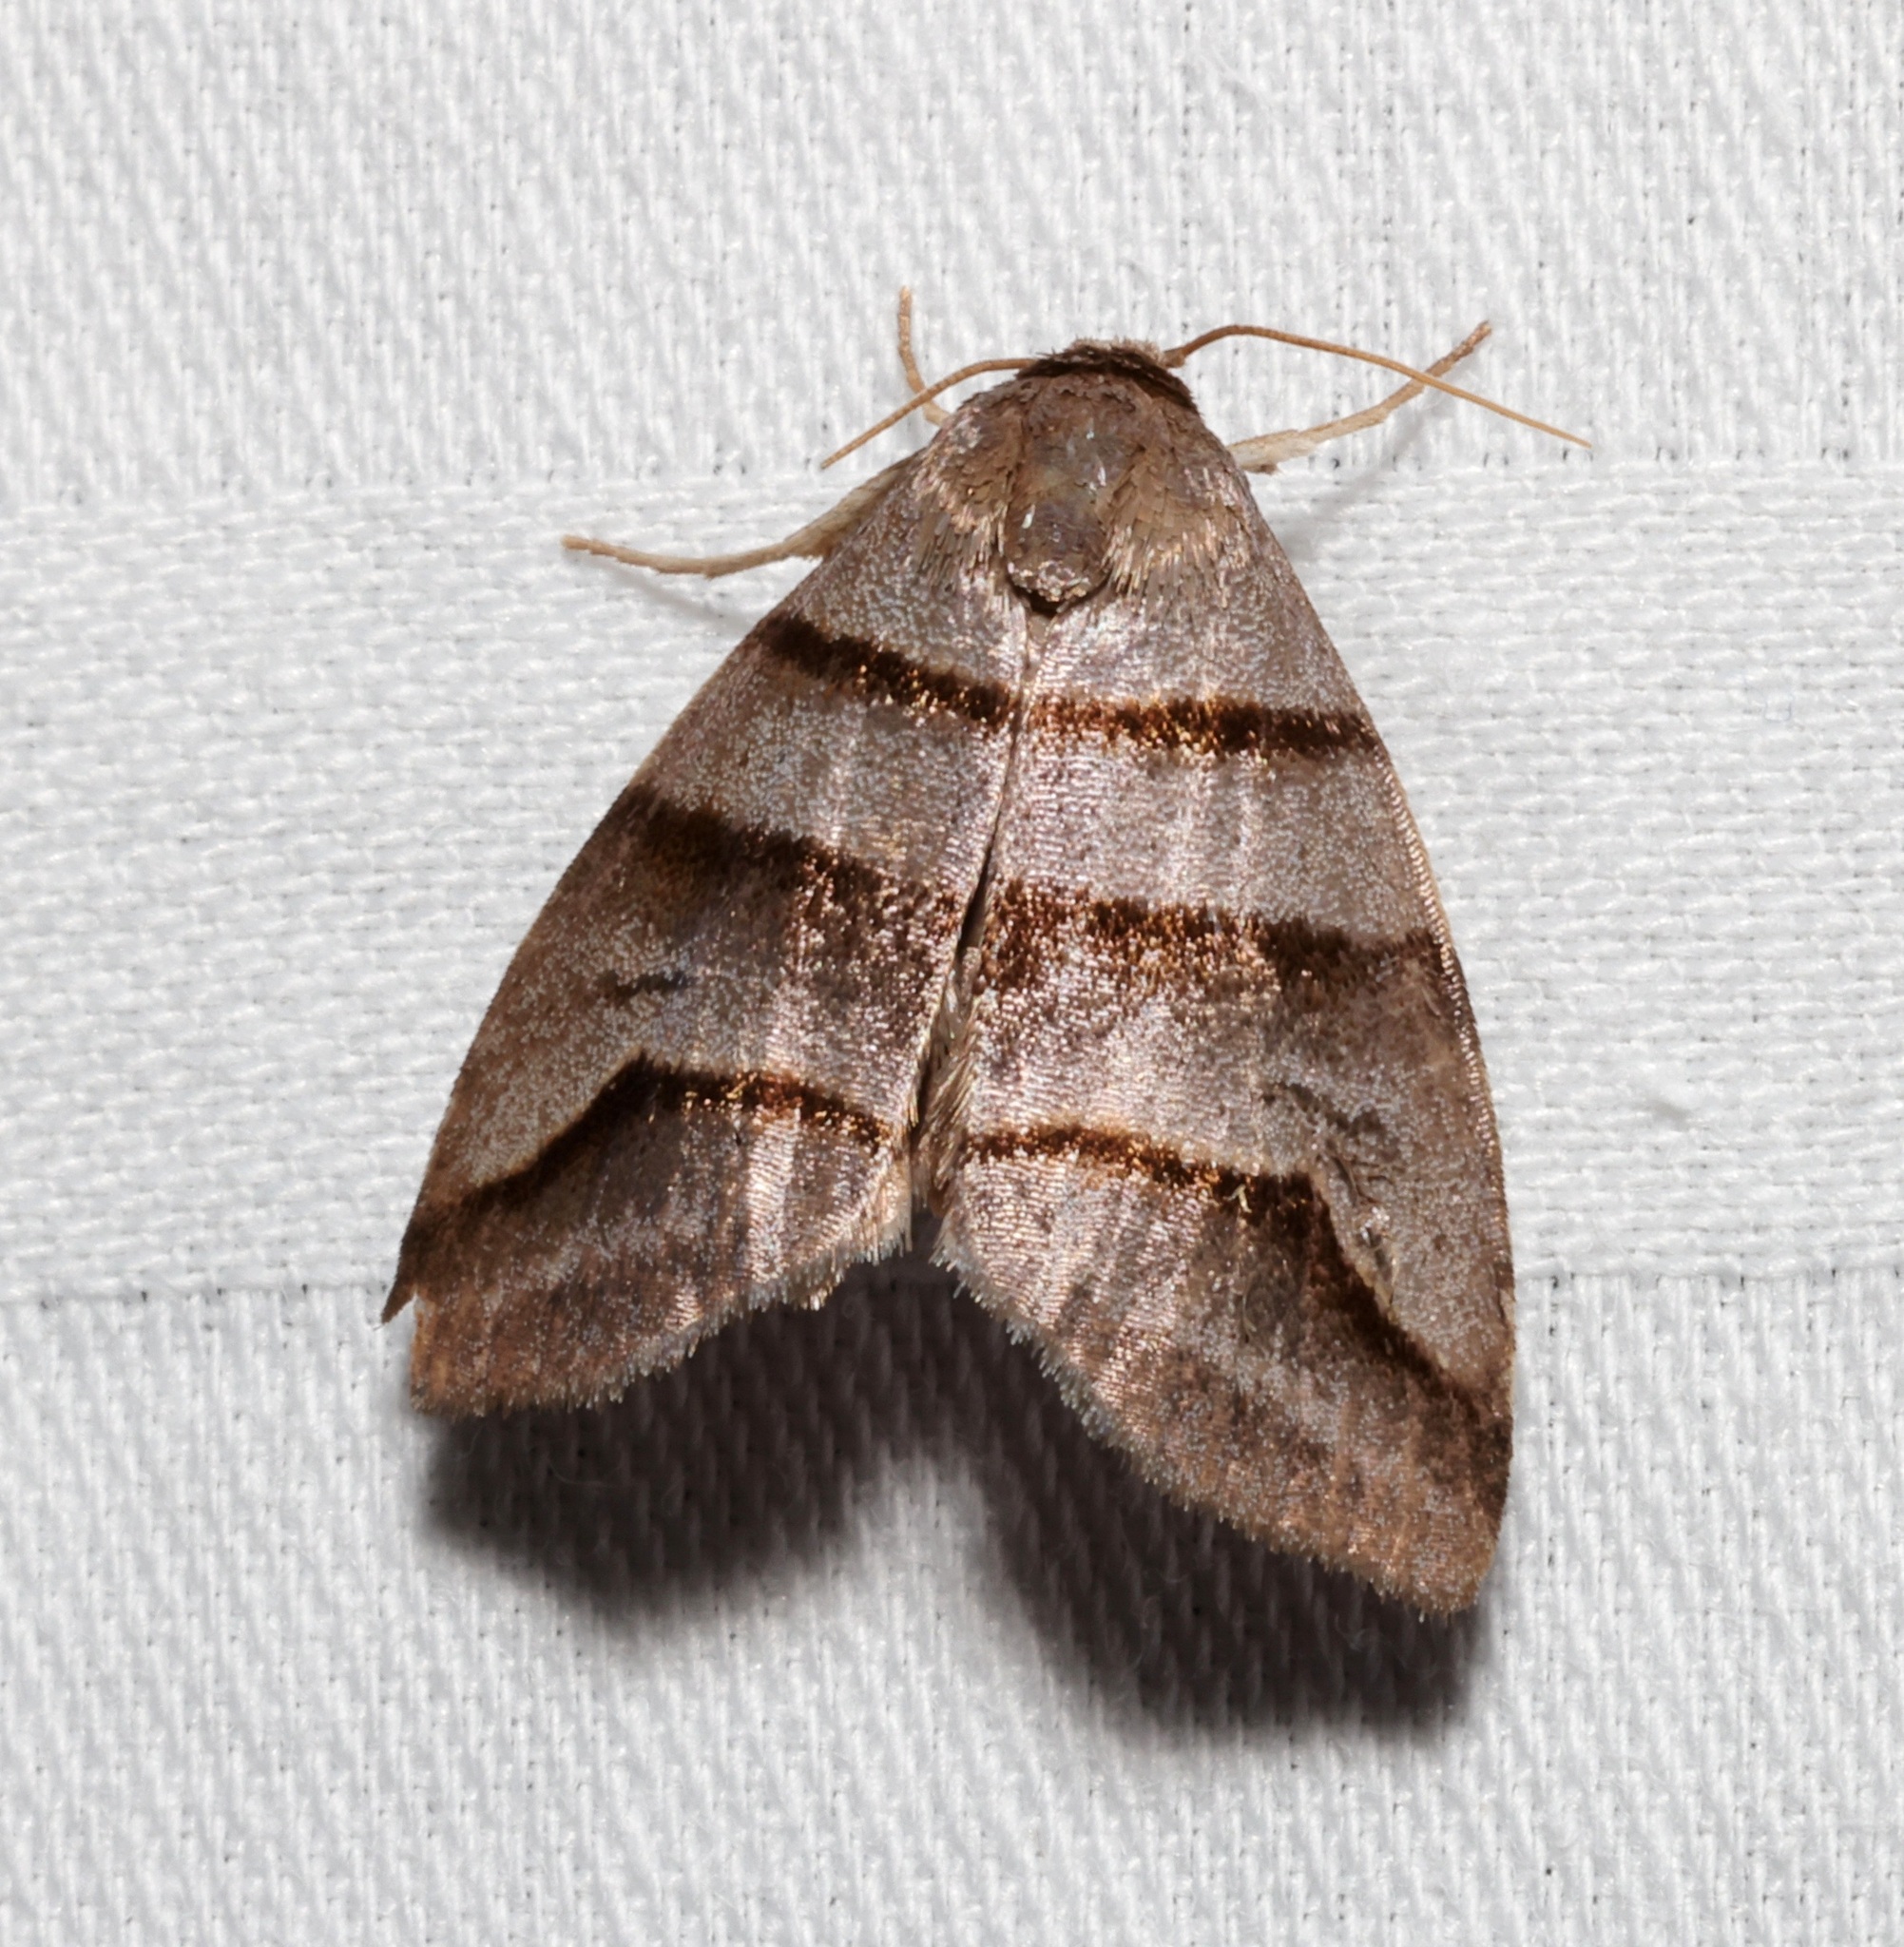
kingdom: Animalia
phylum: Arthropoda
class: Insecta
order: Lepidoptera
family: Noctuidae
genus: Flammona
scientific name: Flammona trilineata
